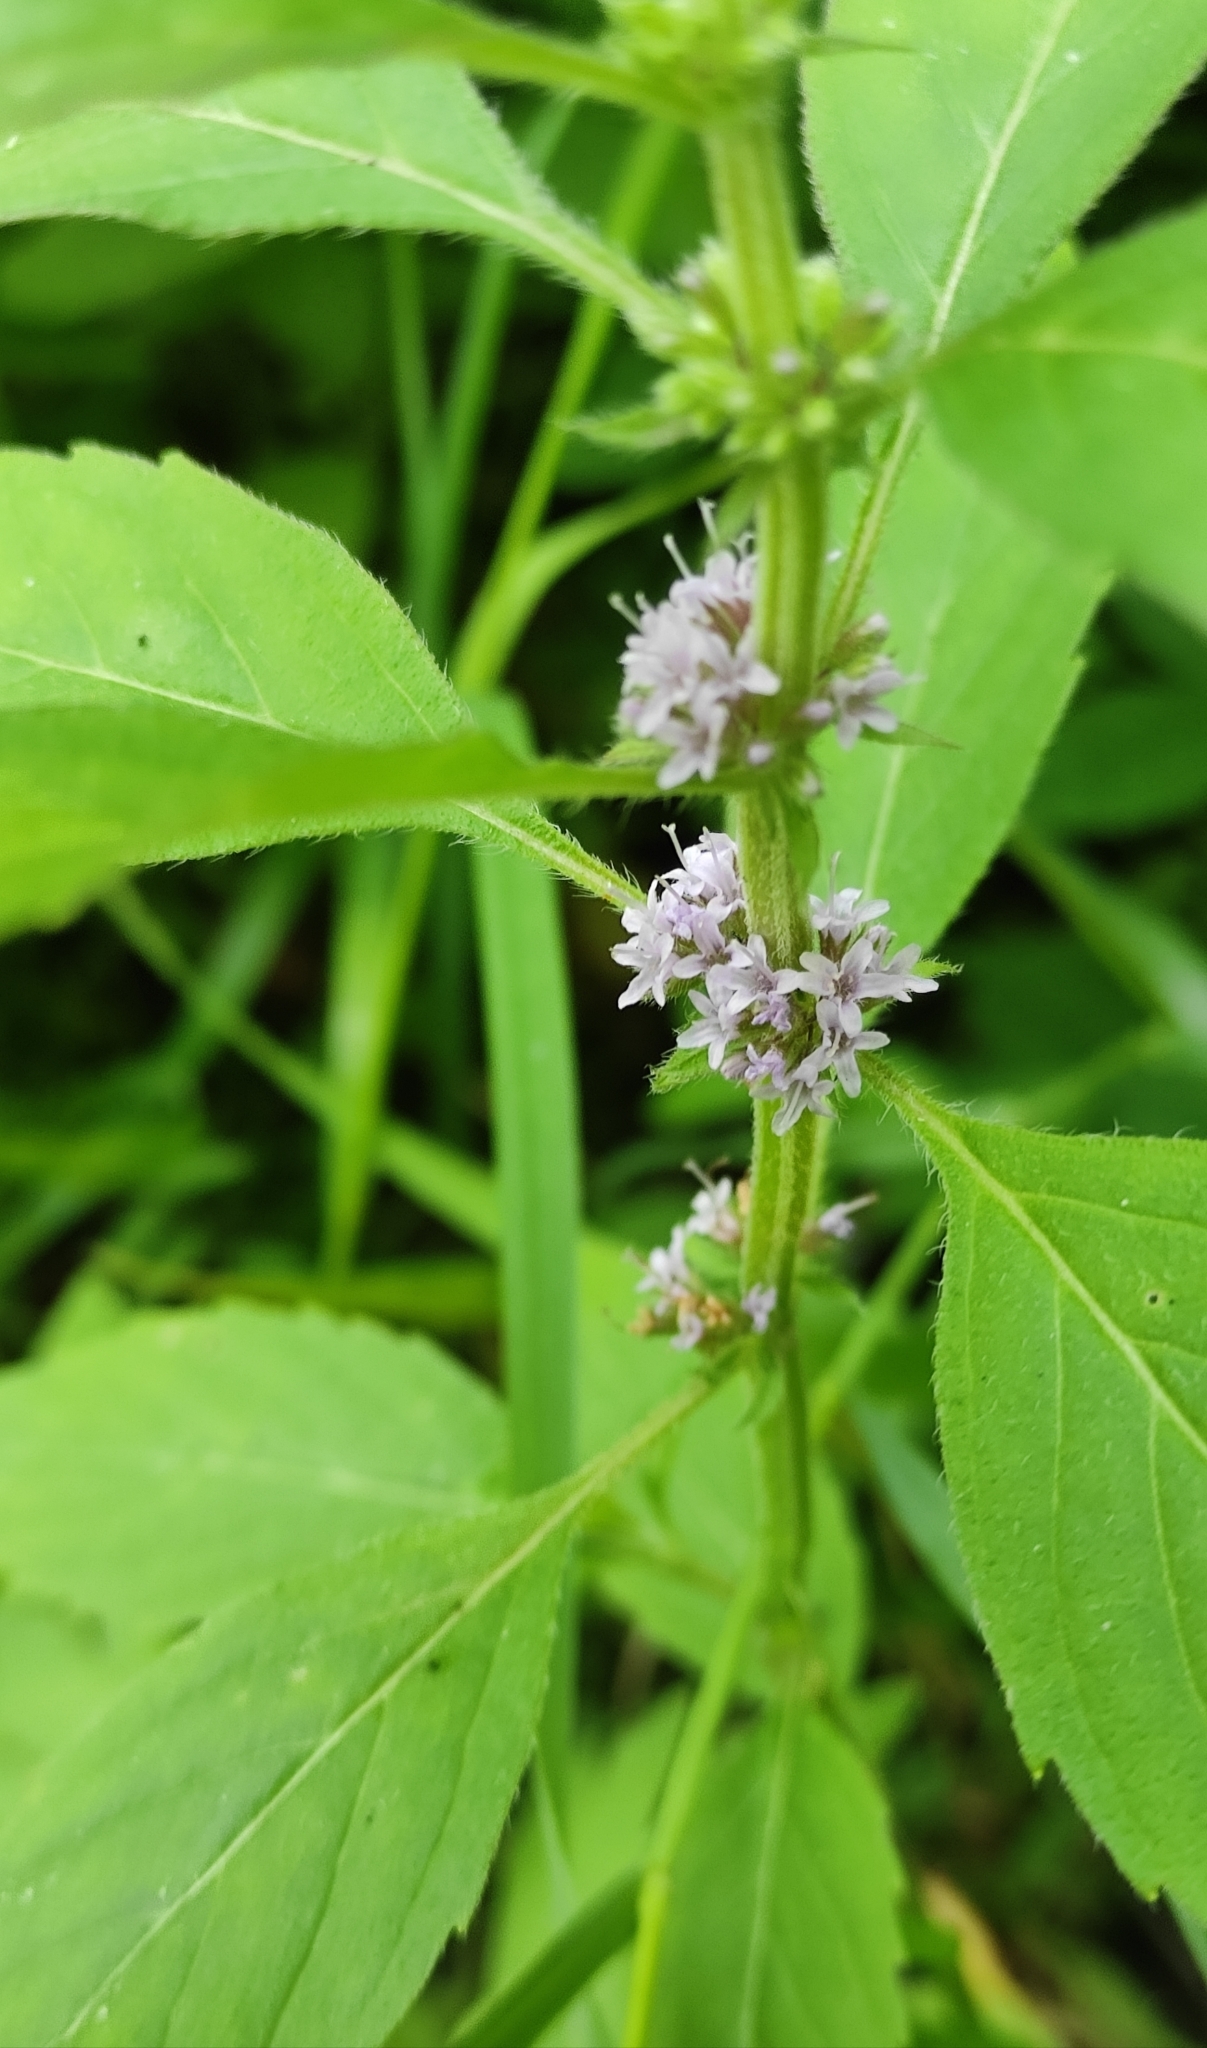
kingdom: Plantae
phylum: Tracheophyta
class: Magnoliopsida
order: Lamiales
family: Lamiaceae
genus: Mentha
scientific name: Mentha canadensis
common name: American corn mint
